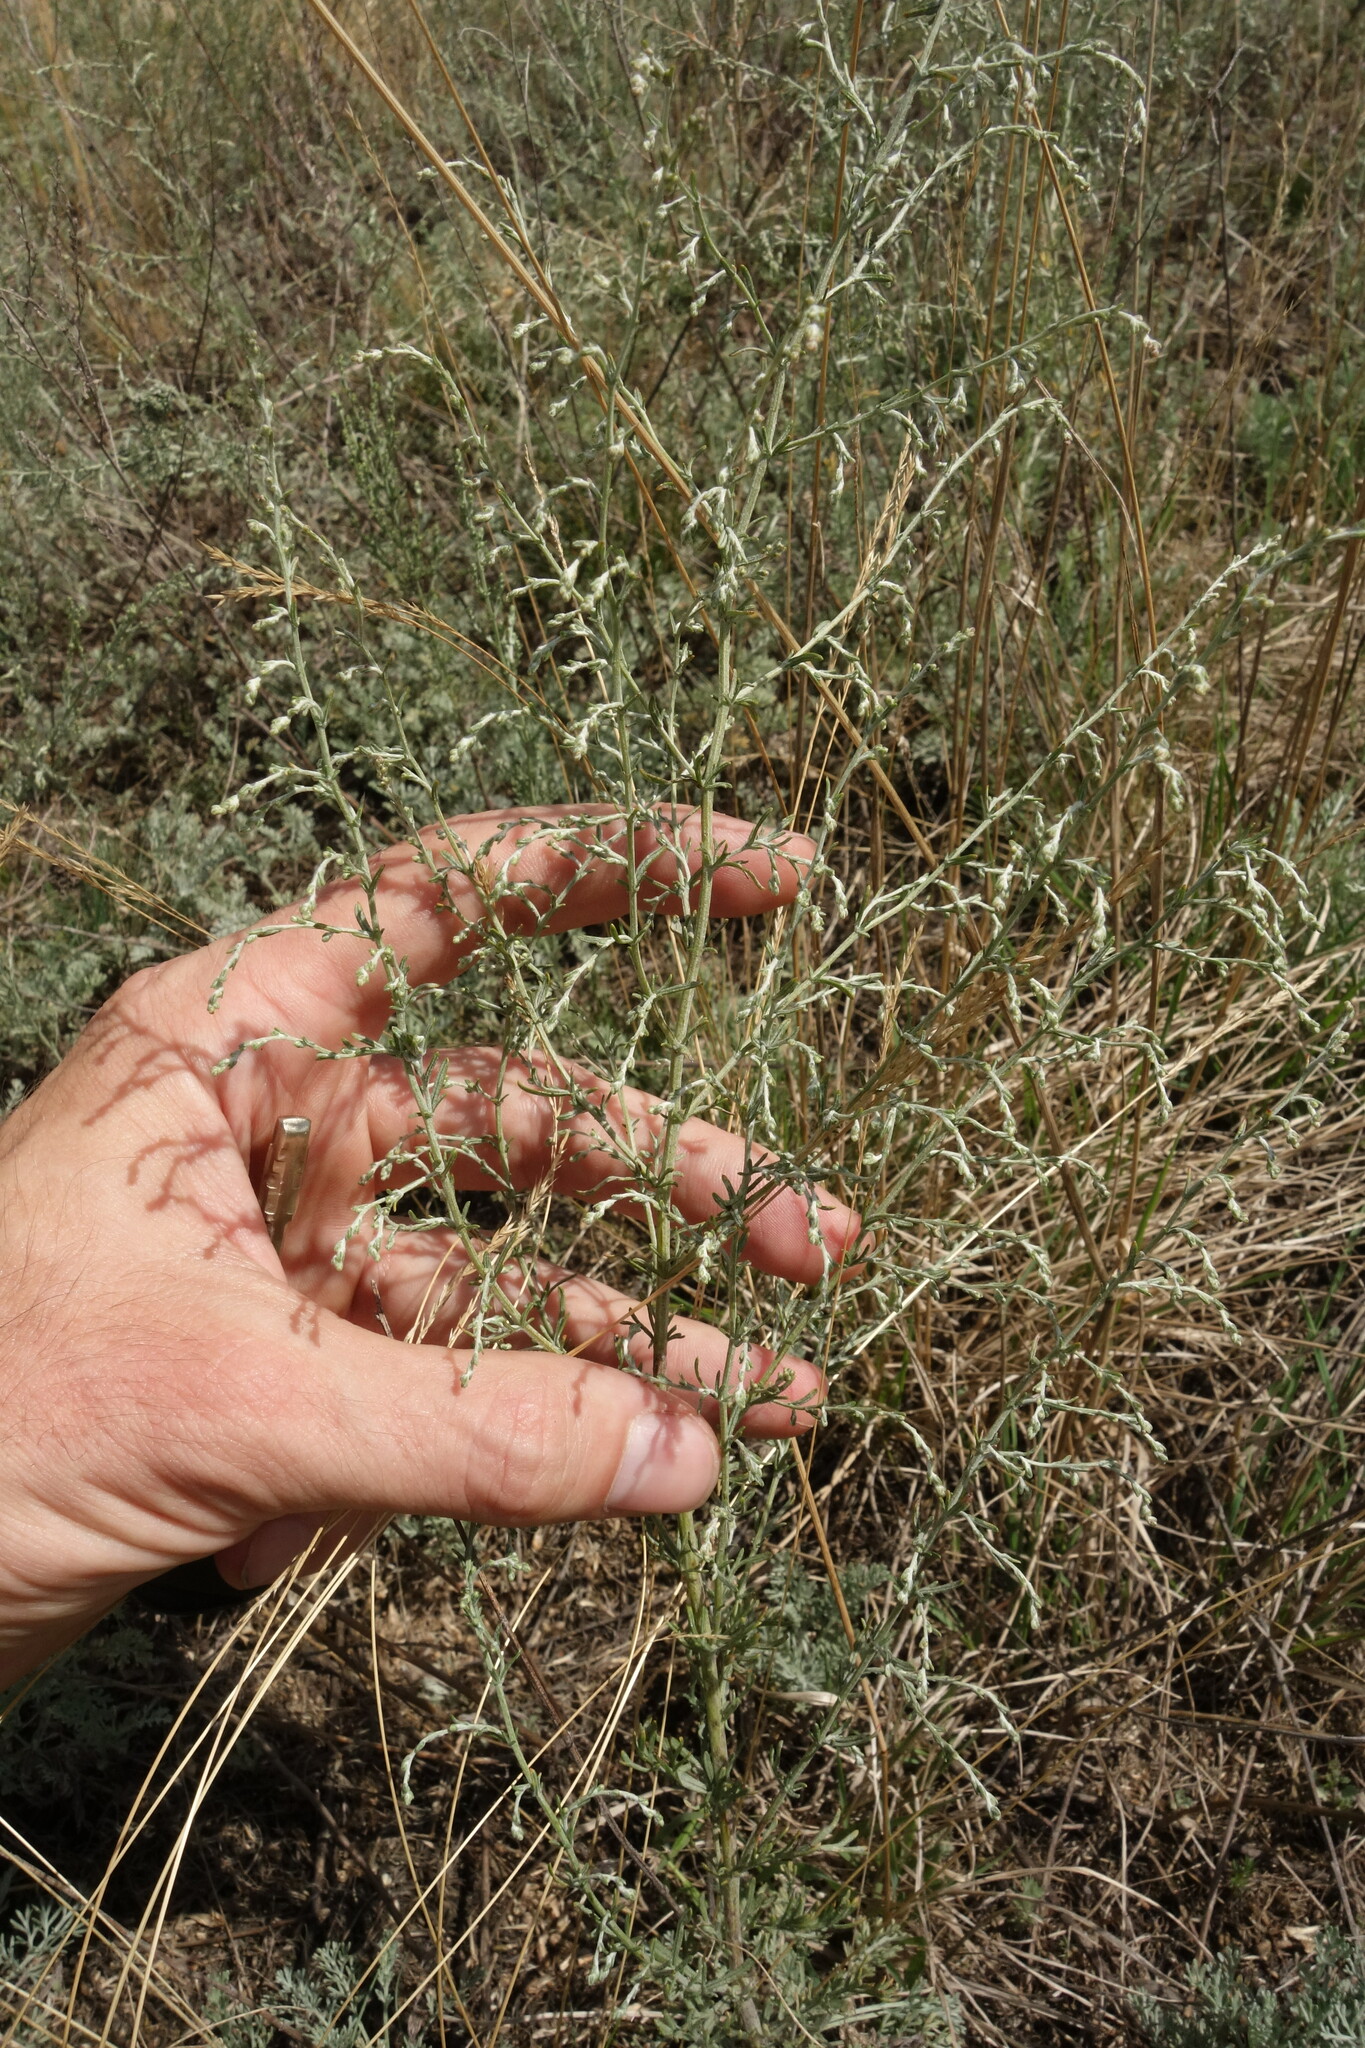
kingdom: Plantae
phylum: Tracheophyta
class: Magnoliopsida
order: Asterales
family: Asteraceae
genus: Artemisia
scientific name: Artemisia santonicum
